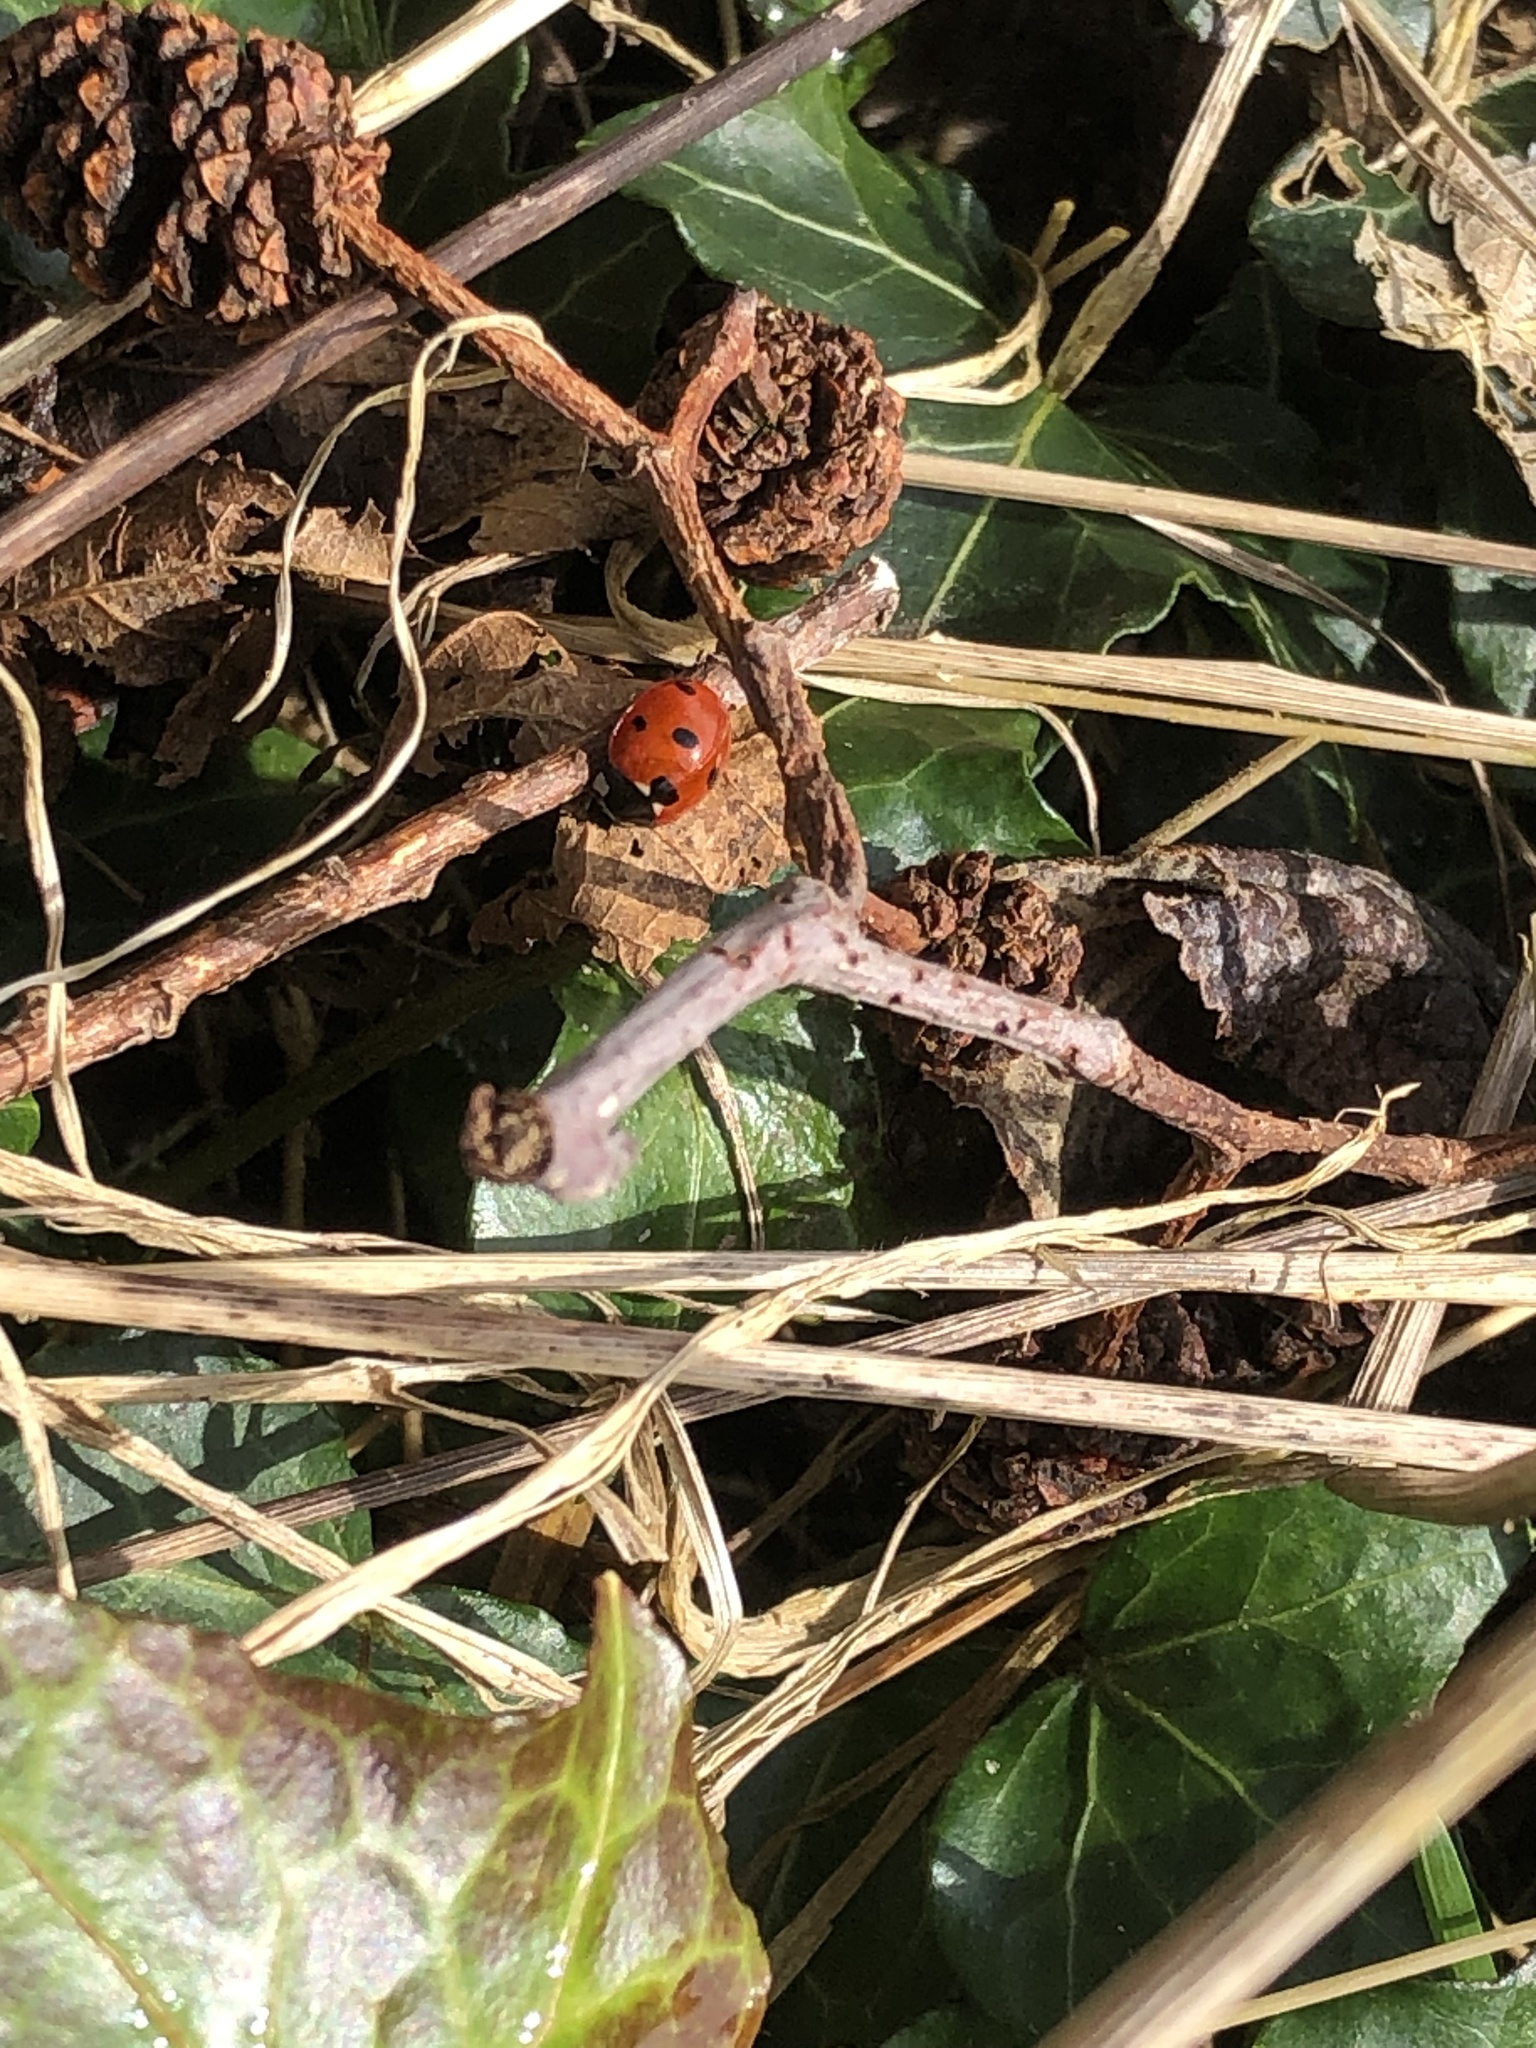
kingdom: Animalia
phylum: Arthropoda
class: Insecta
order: Coleoptera
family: Coccinellidae
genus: Coccinella
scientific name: Coccinella septempunctata
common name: Sevenspotted lady beetle
